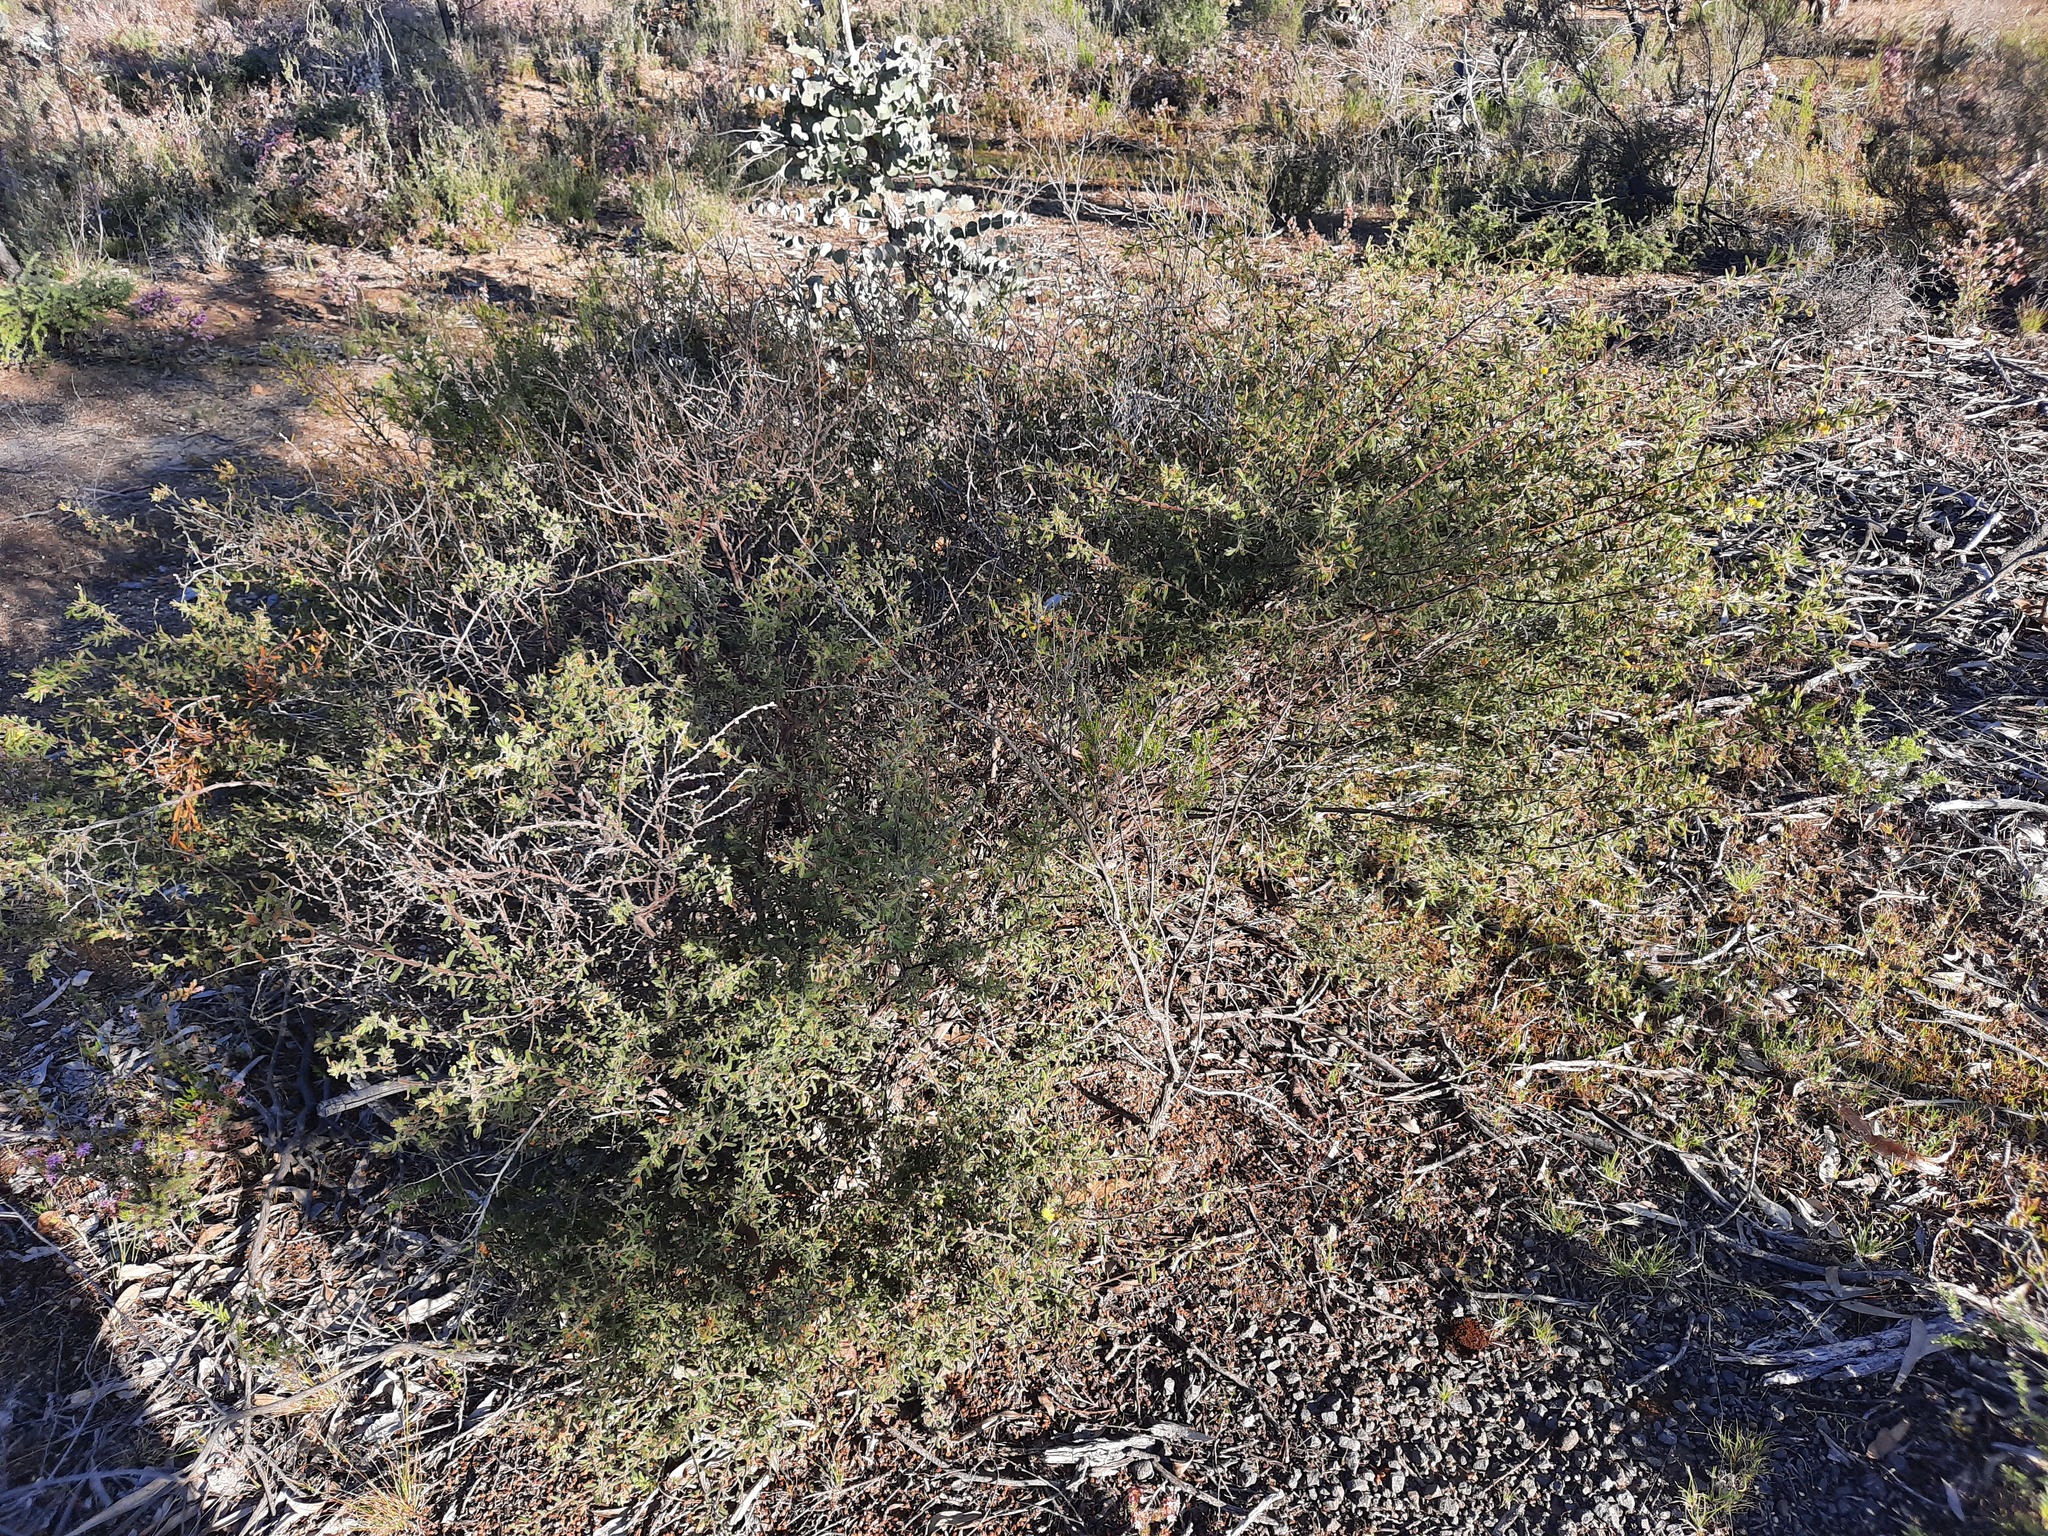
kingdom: Plantae
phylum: Tracheophyta
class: Magnoliopsida
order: Fabales
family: Fabaceae
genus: Acacia
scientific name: Acacia aspera
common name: Rough wattle
